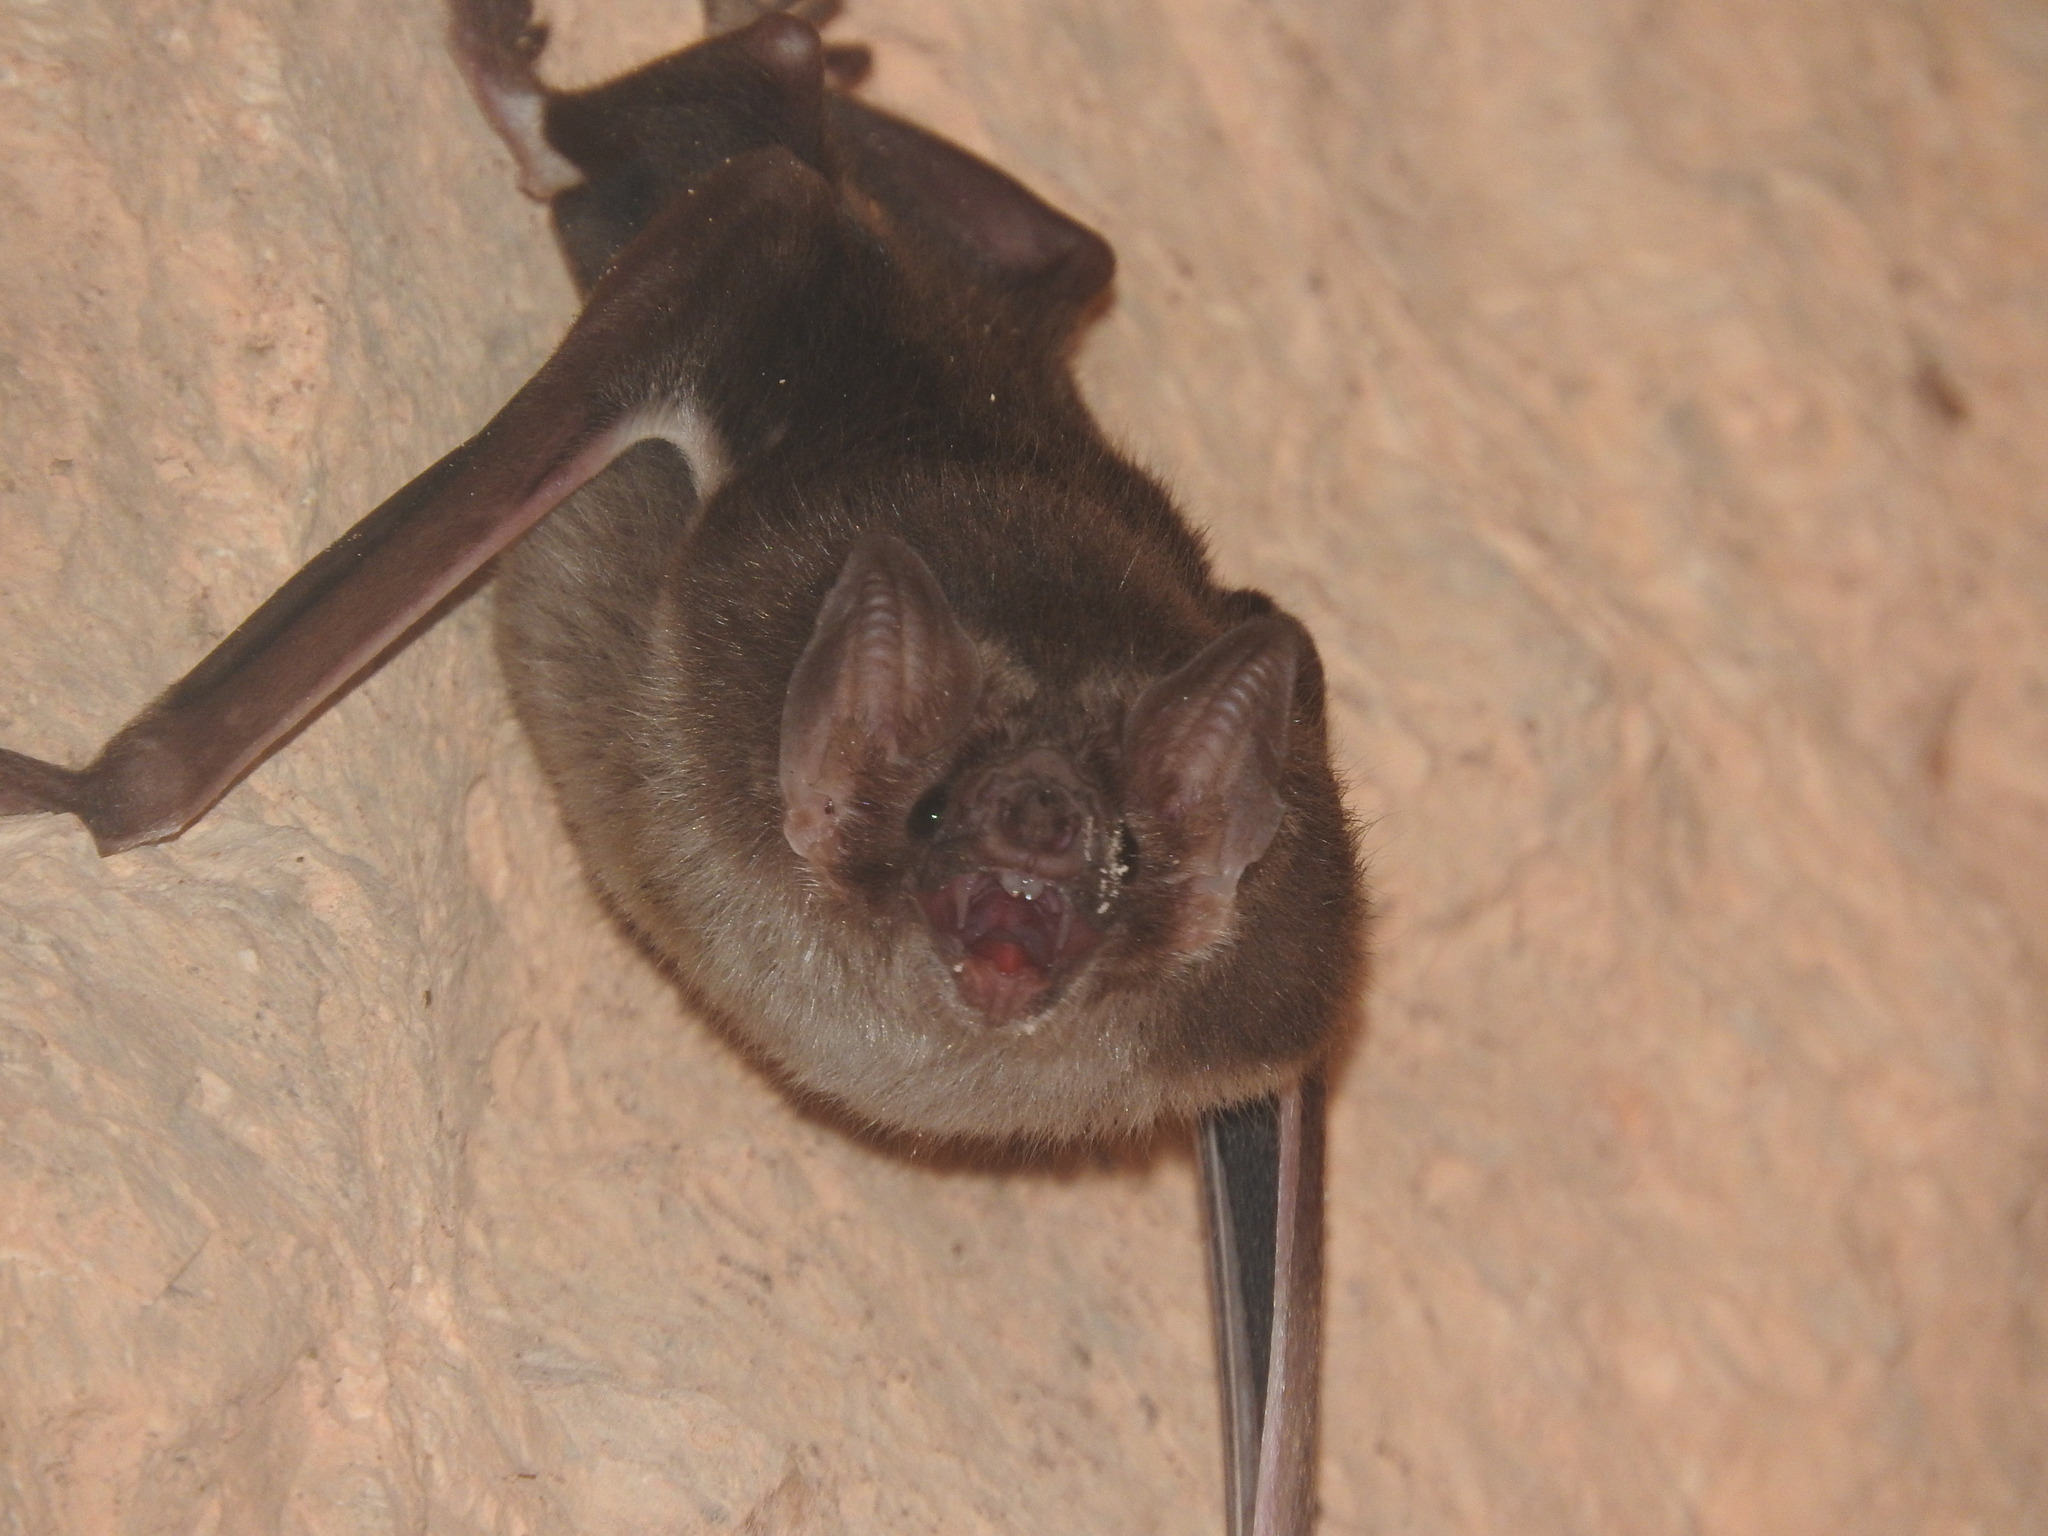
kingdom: Animalia
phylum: Chordata
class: Mammalia
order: Chiroptera
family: Phyllostomidae
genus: Desmodus
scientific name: Desmodus rotundus
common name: Common vampire bat
